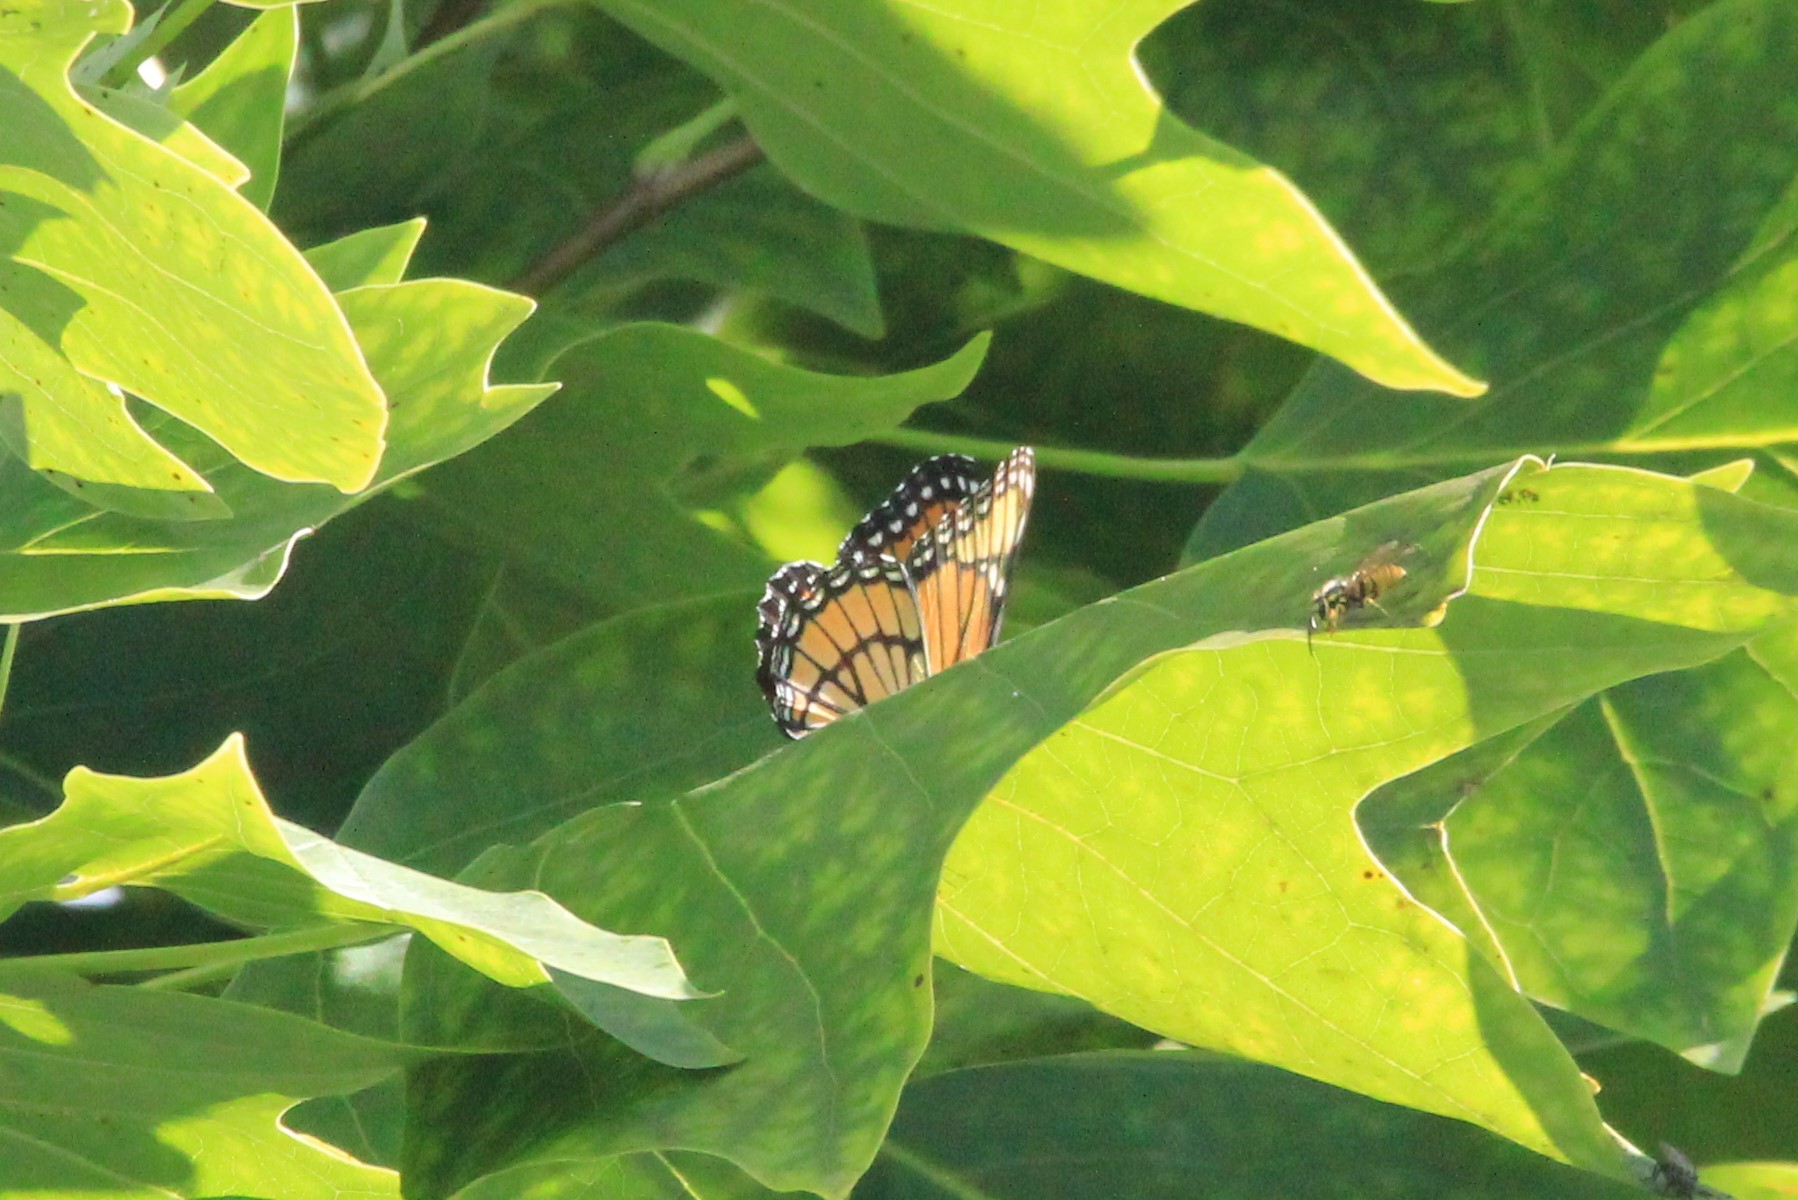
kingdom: Animalia
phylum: Arthropoda
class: Insecta
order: Lepidoptera
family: Nymphalidae
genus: Limenitis
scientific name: Limenitis archippus
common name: Viceroy
